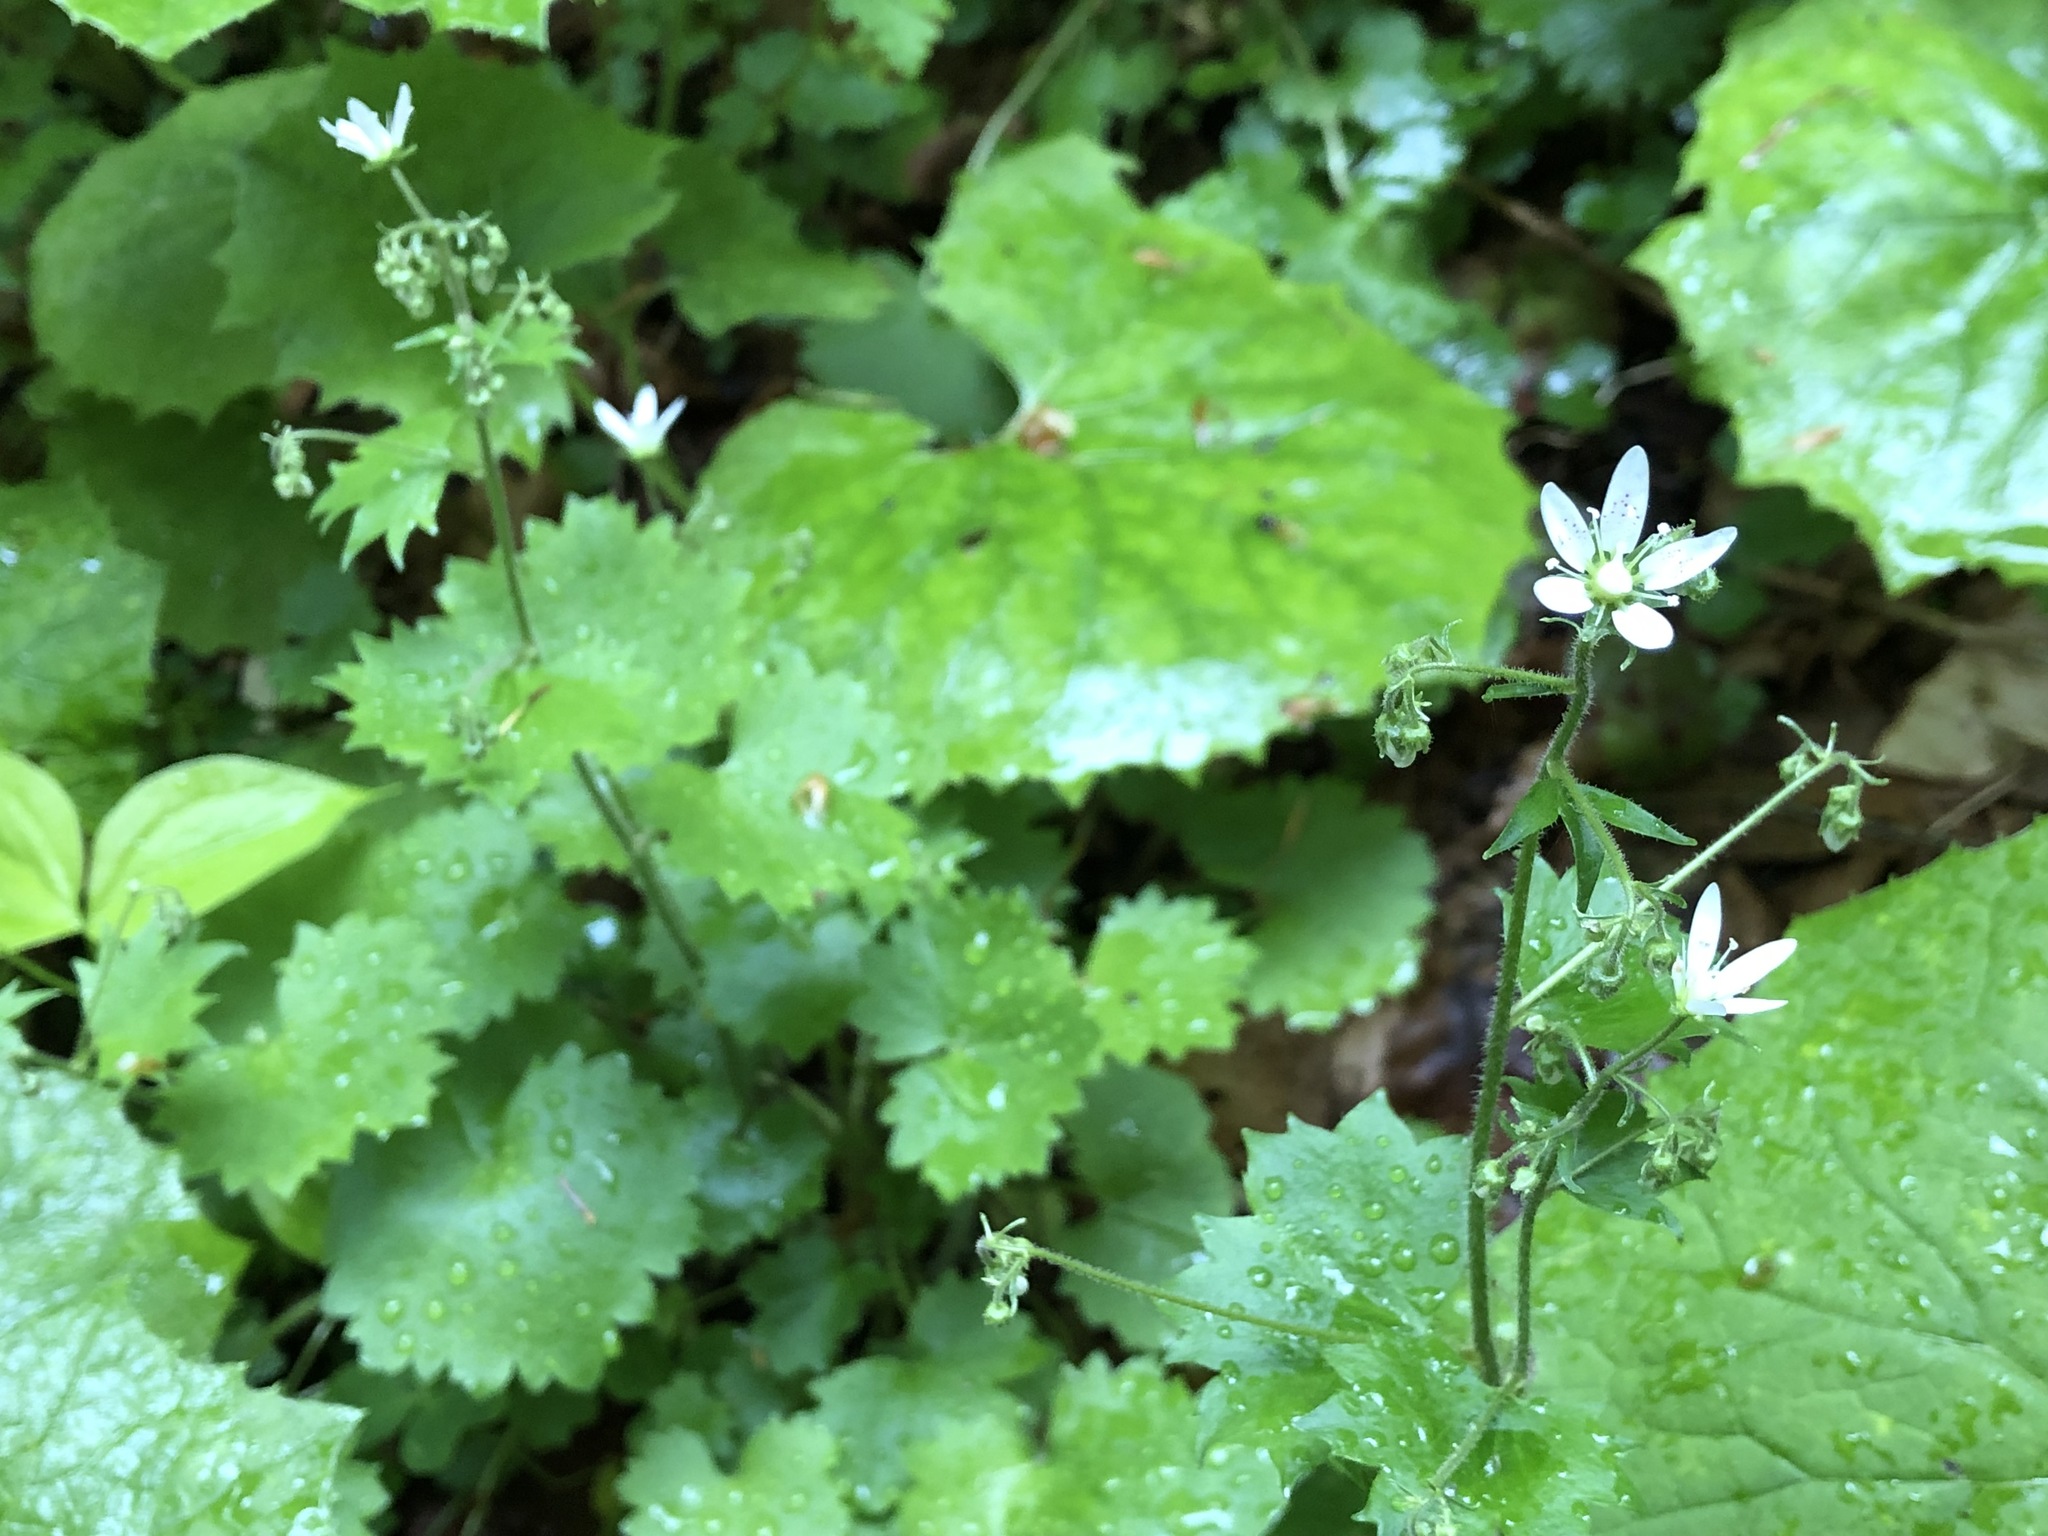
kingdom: Plantae
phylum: Tracheophyta
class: Magnoliopsida
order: Saxifragales
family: Saxifragaceae
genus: Saxifraga
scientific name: Saxifraga rotundifolia
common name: Round-leaved saxifrage
